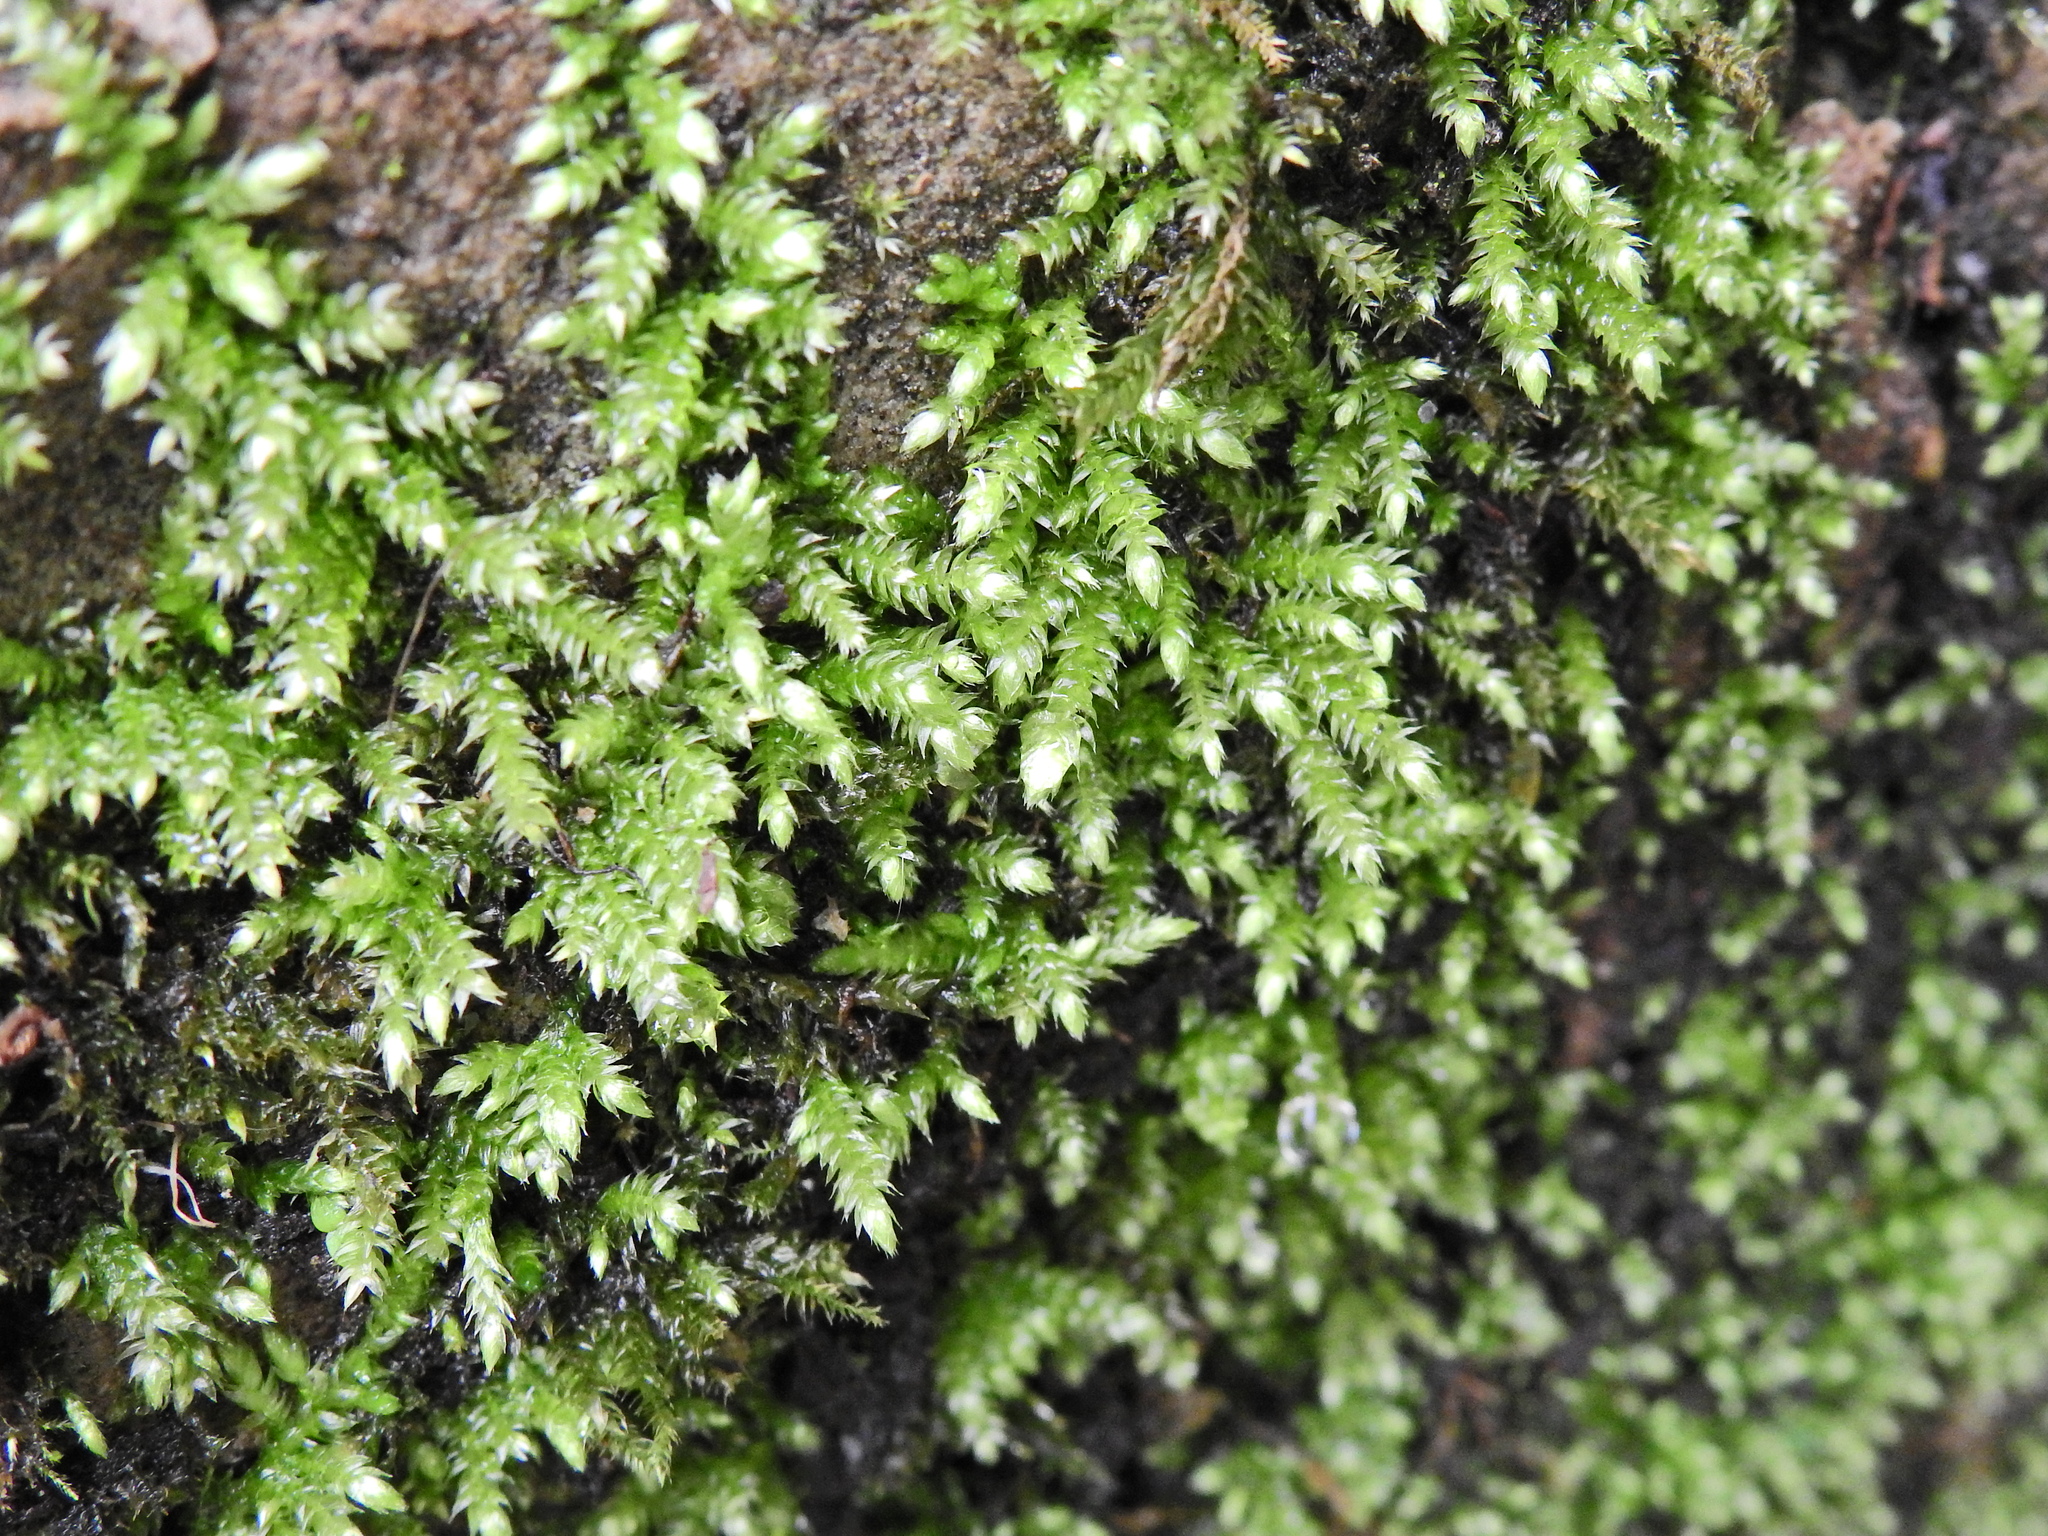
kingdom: Plantae
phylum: Bryophyta
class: Bryopsida
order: Hypnales
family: Brachytheciaceae
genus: Rhynchostegium
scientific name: Rhynchostegium confertum
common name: Clustered feather-moss
